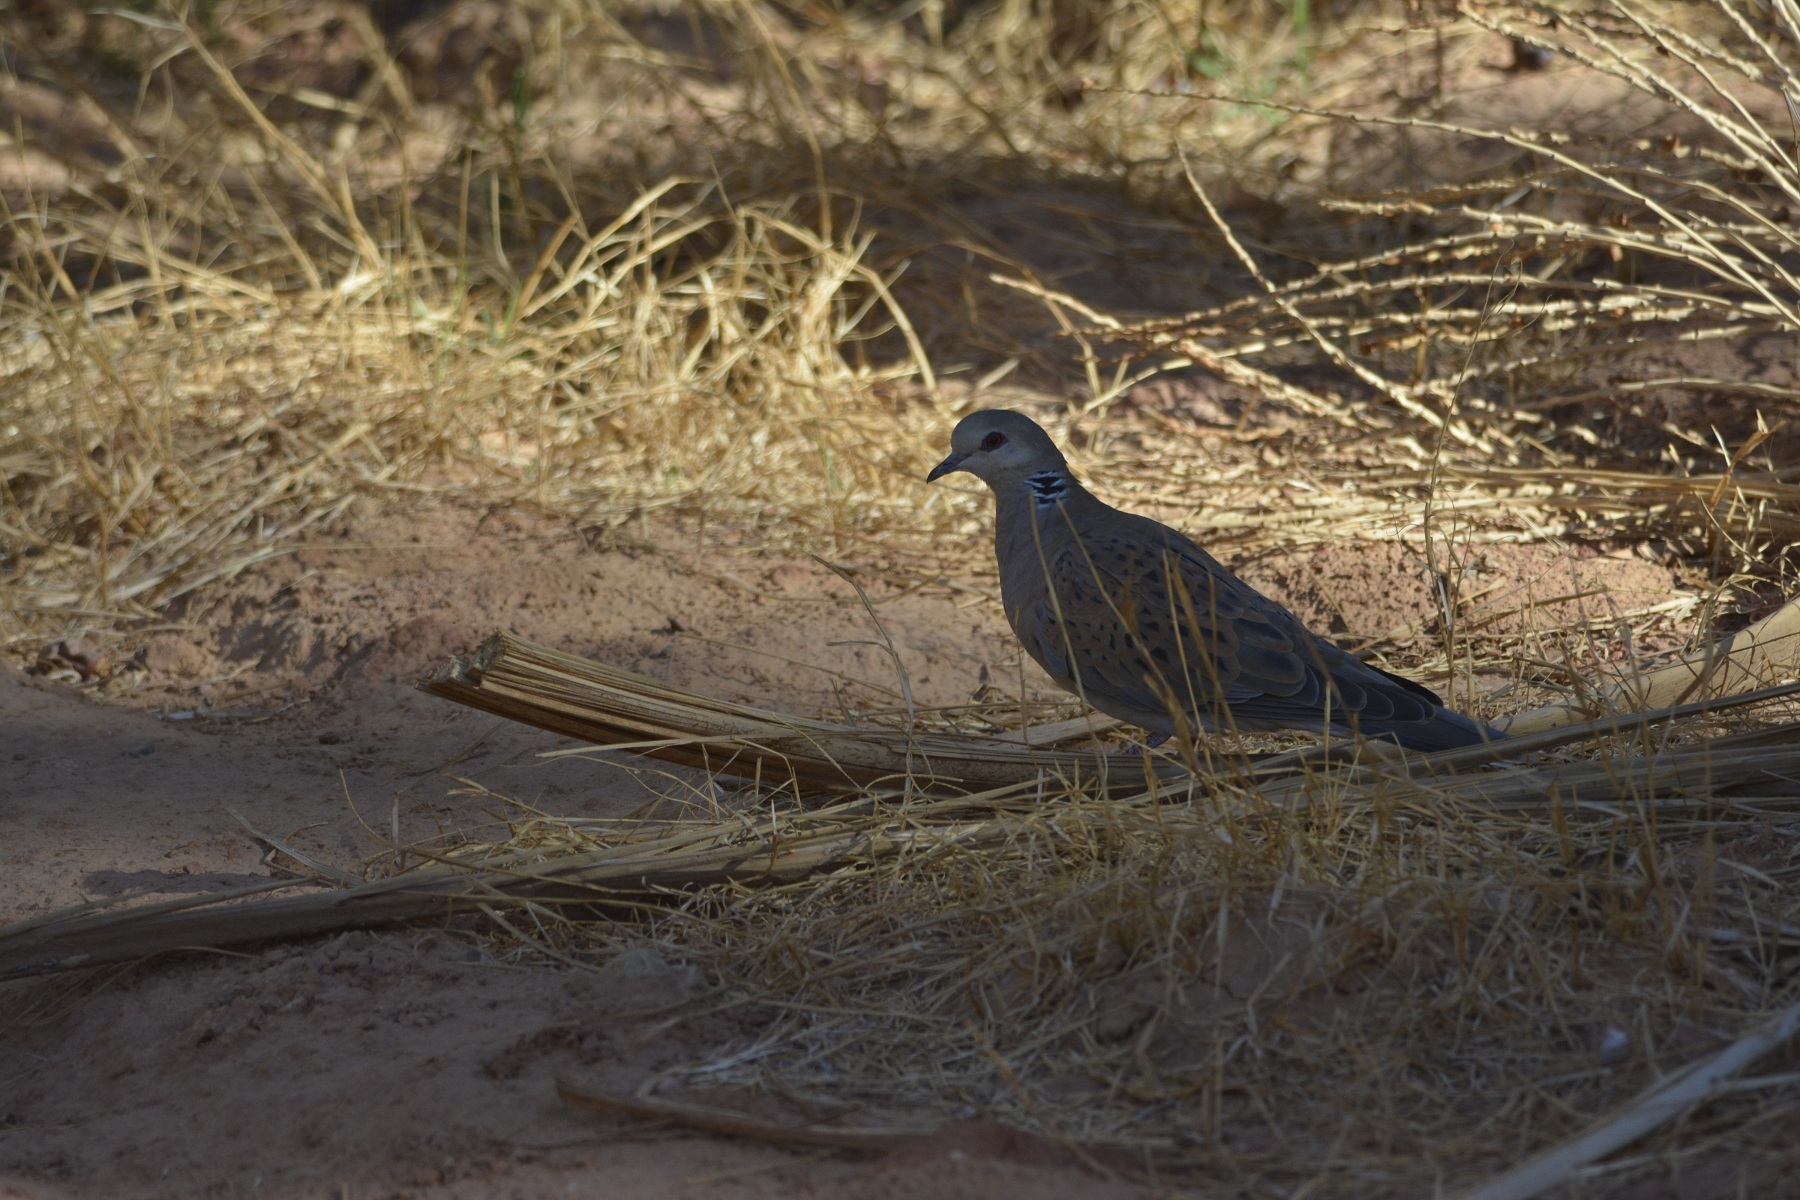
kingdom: Animalia
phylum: Chordata
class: Aves
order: Columbiformes
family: Columbidae
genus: Streptopelia
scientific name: Streptopelia turtur
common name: European turtle dove
